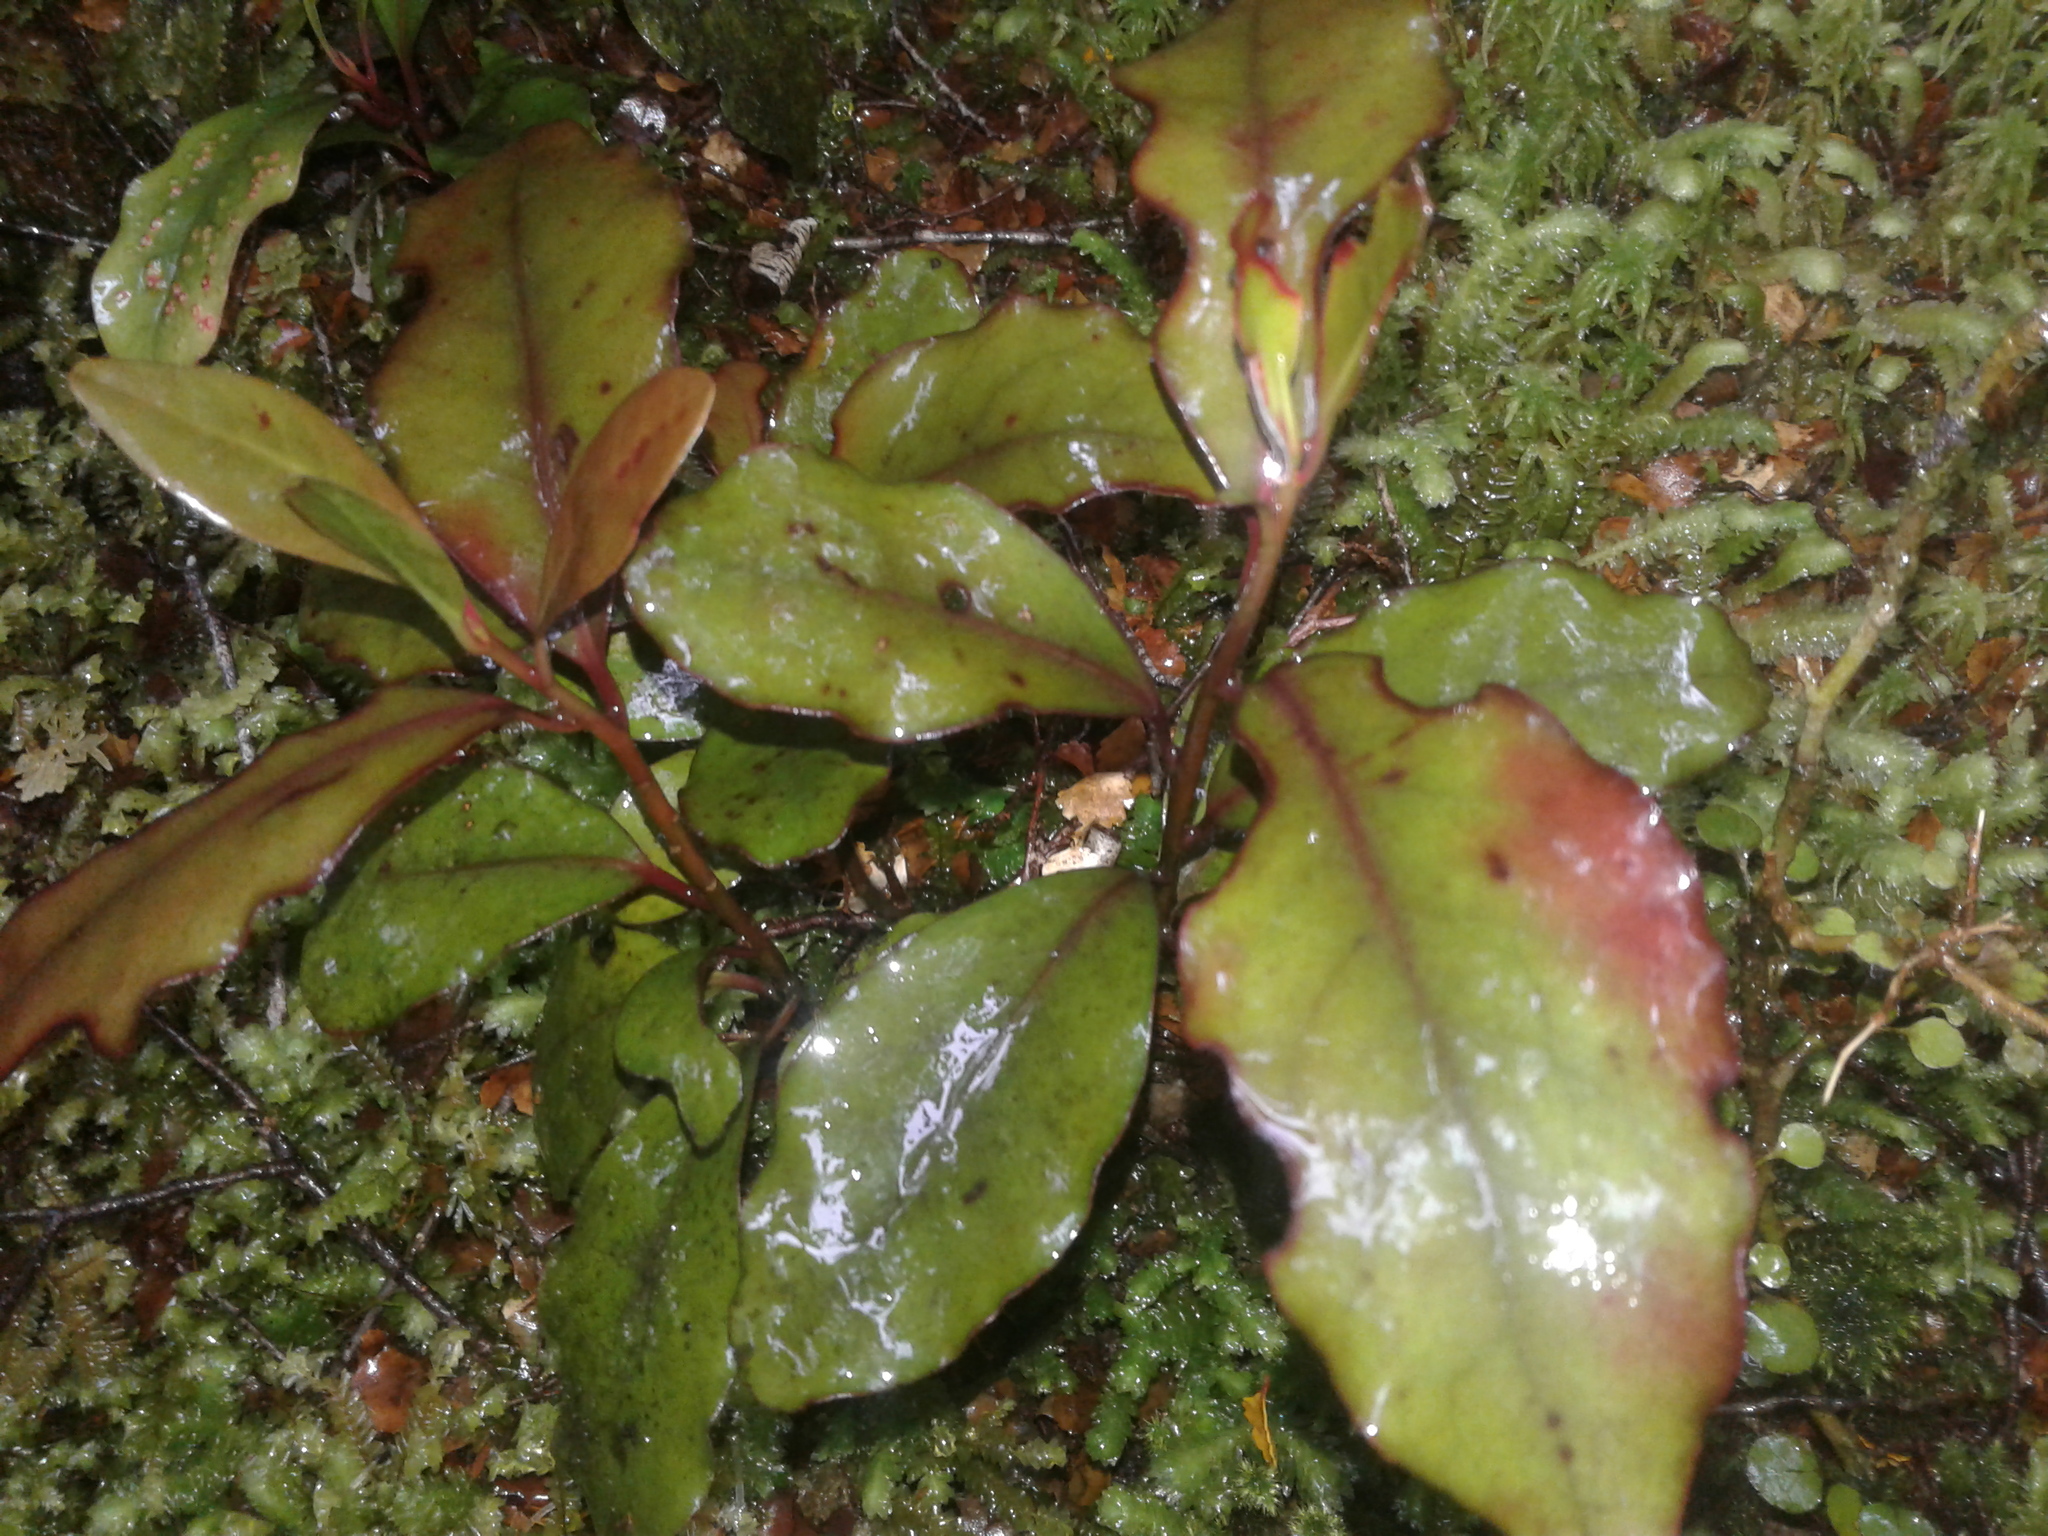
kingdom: Plantae
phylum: Tracheophyta
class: Magnoliopsida
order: Canellales
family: Winteraceae
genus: Pseudowintera
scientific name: Pseudowintera colorata
